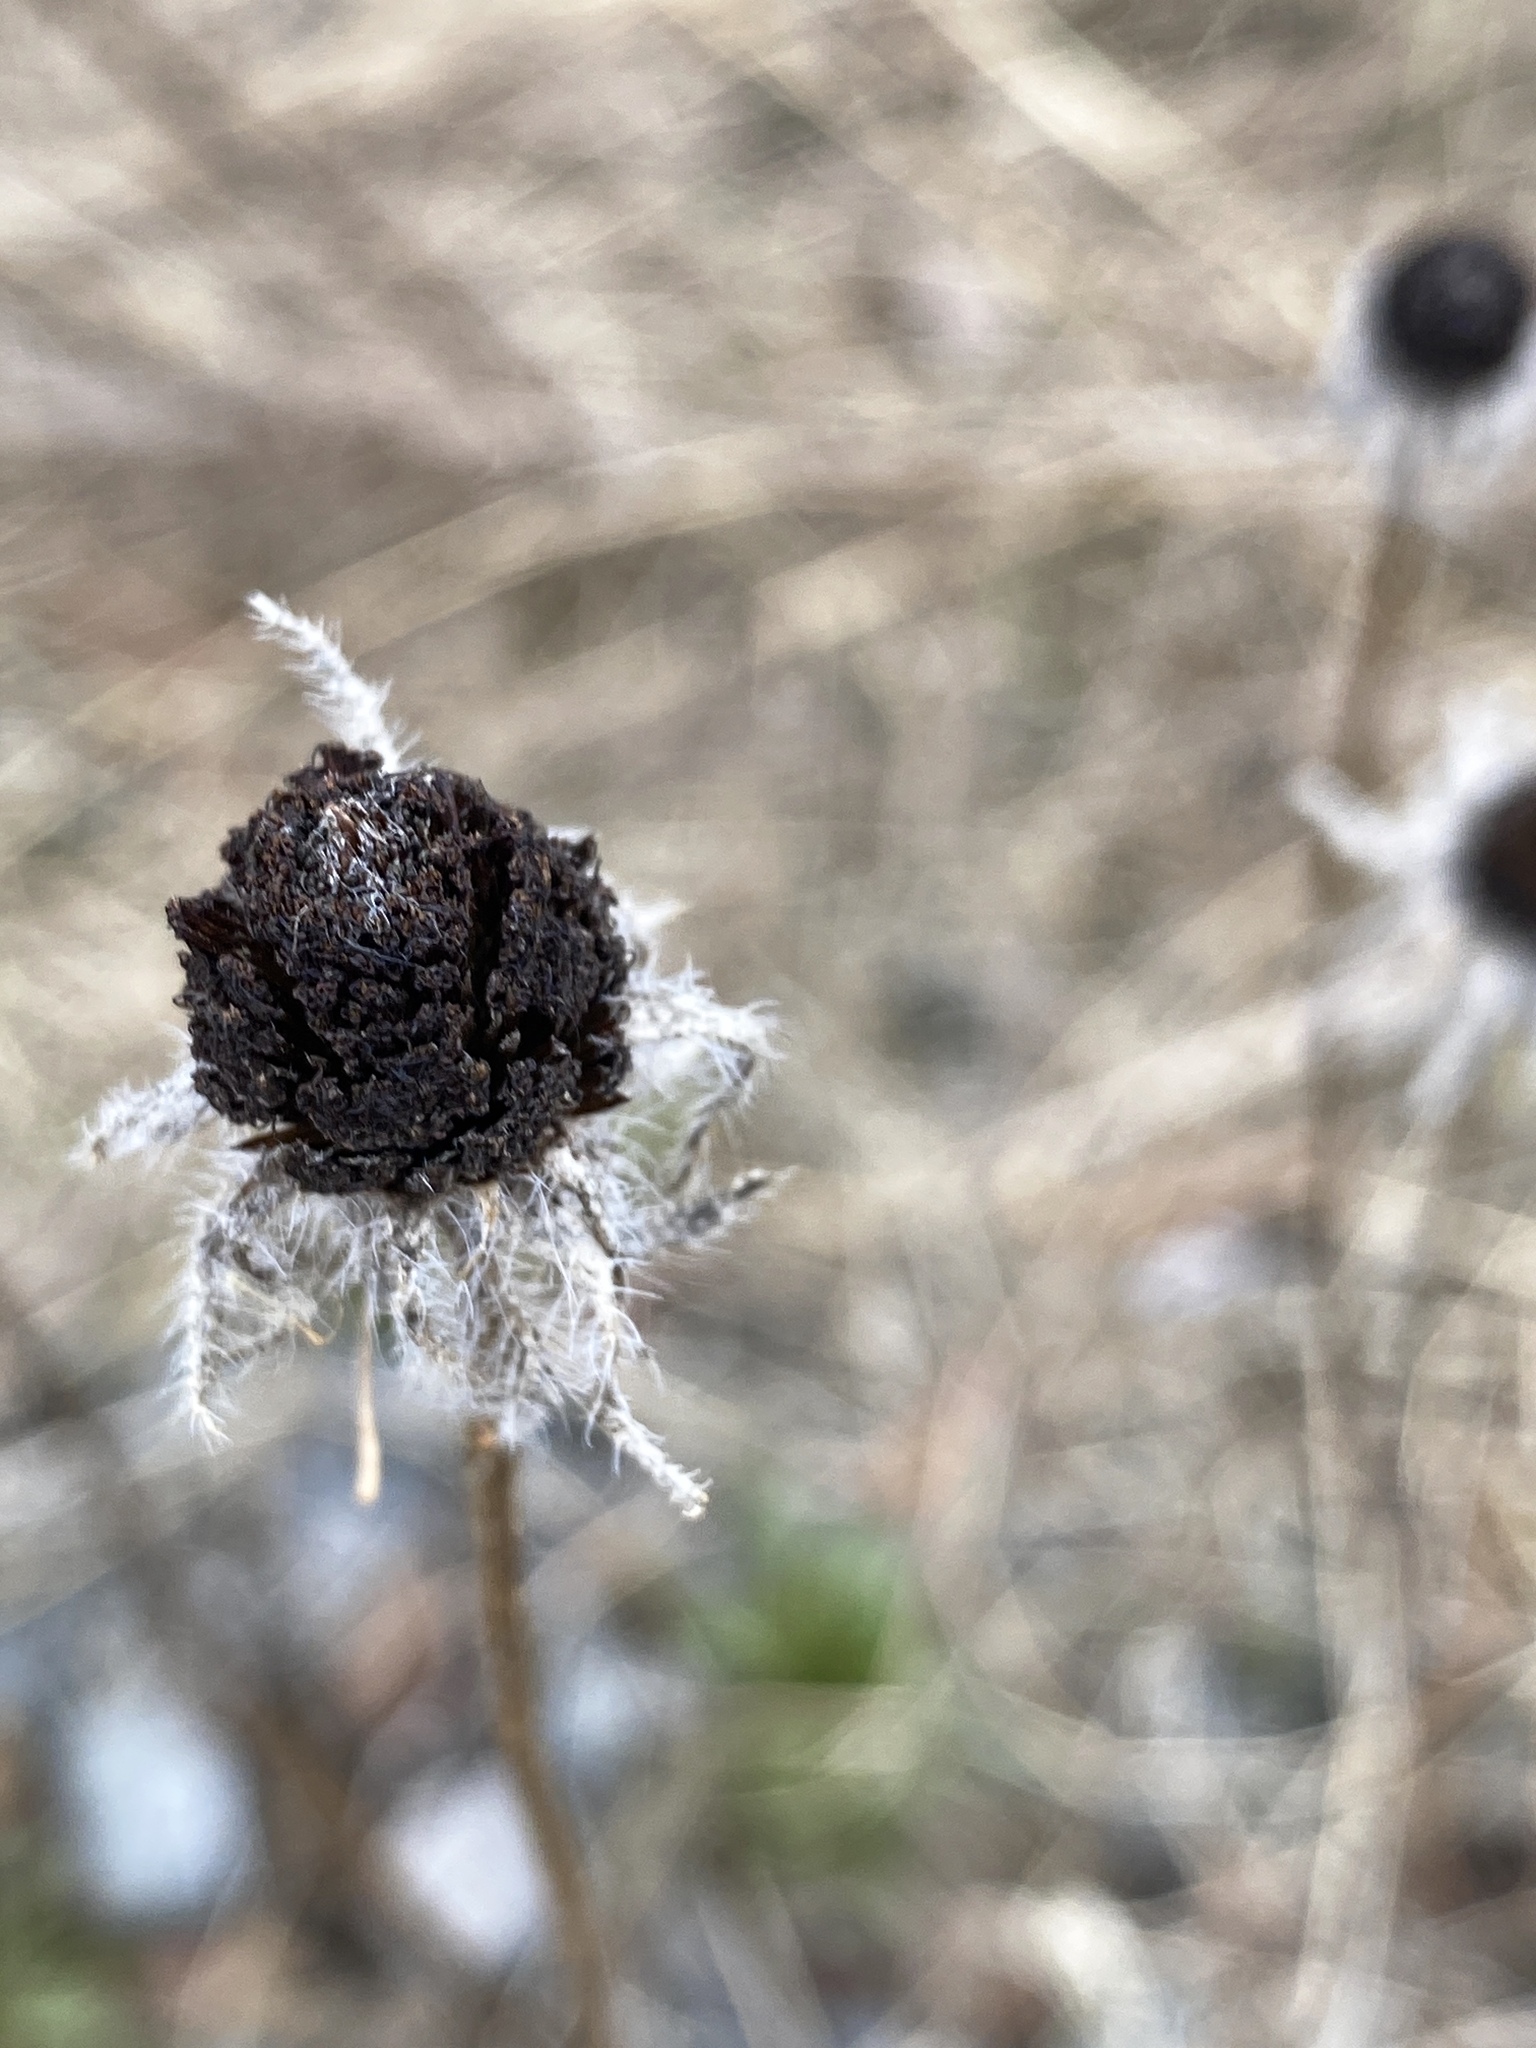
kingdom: Plantae
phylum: Tracheophyta
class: Magnoliopsida
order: Asterales
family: Asteraceae
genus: Rudbeckia
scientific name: Rudbeckia hirta
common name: Black-eyed-susan
